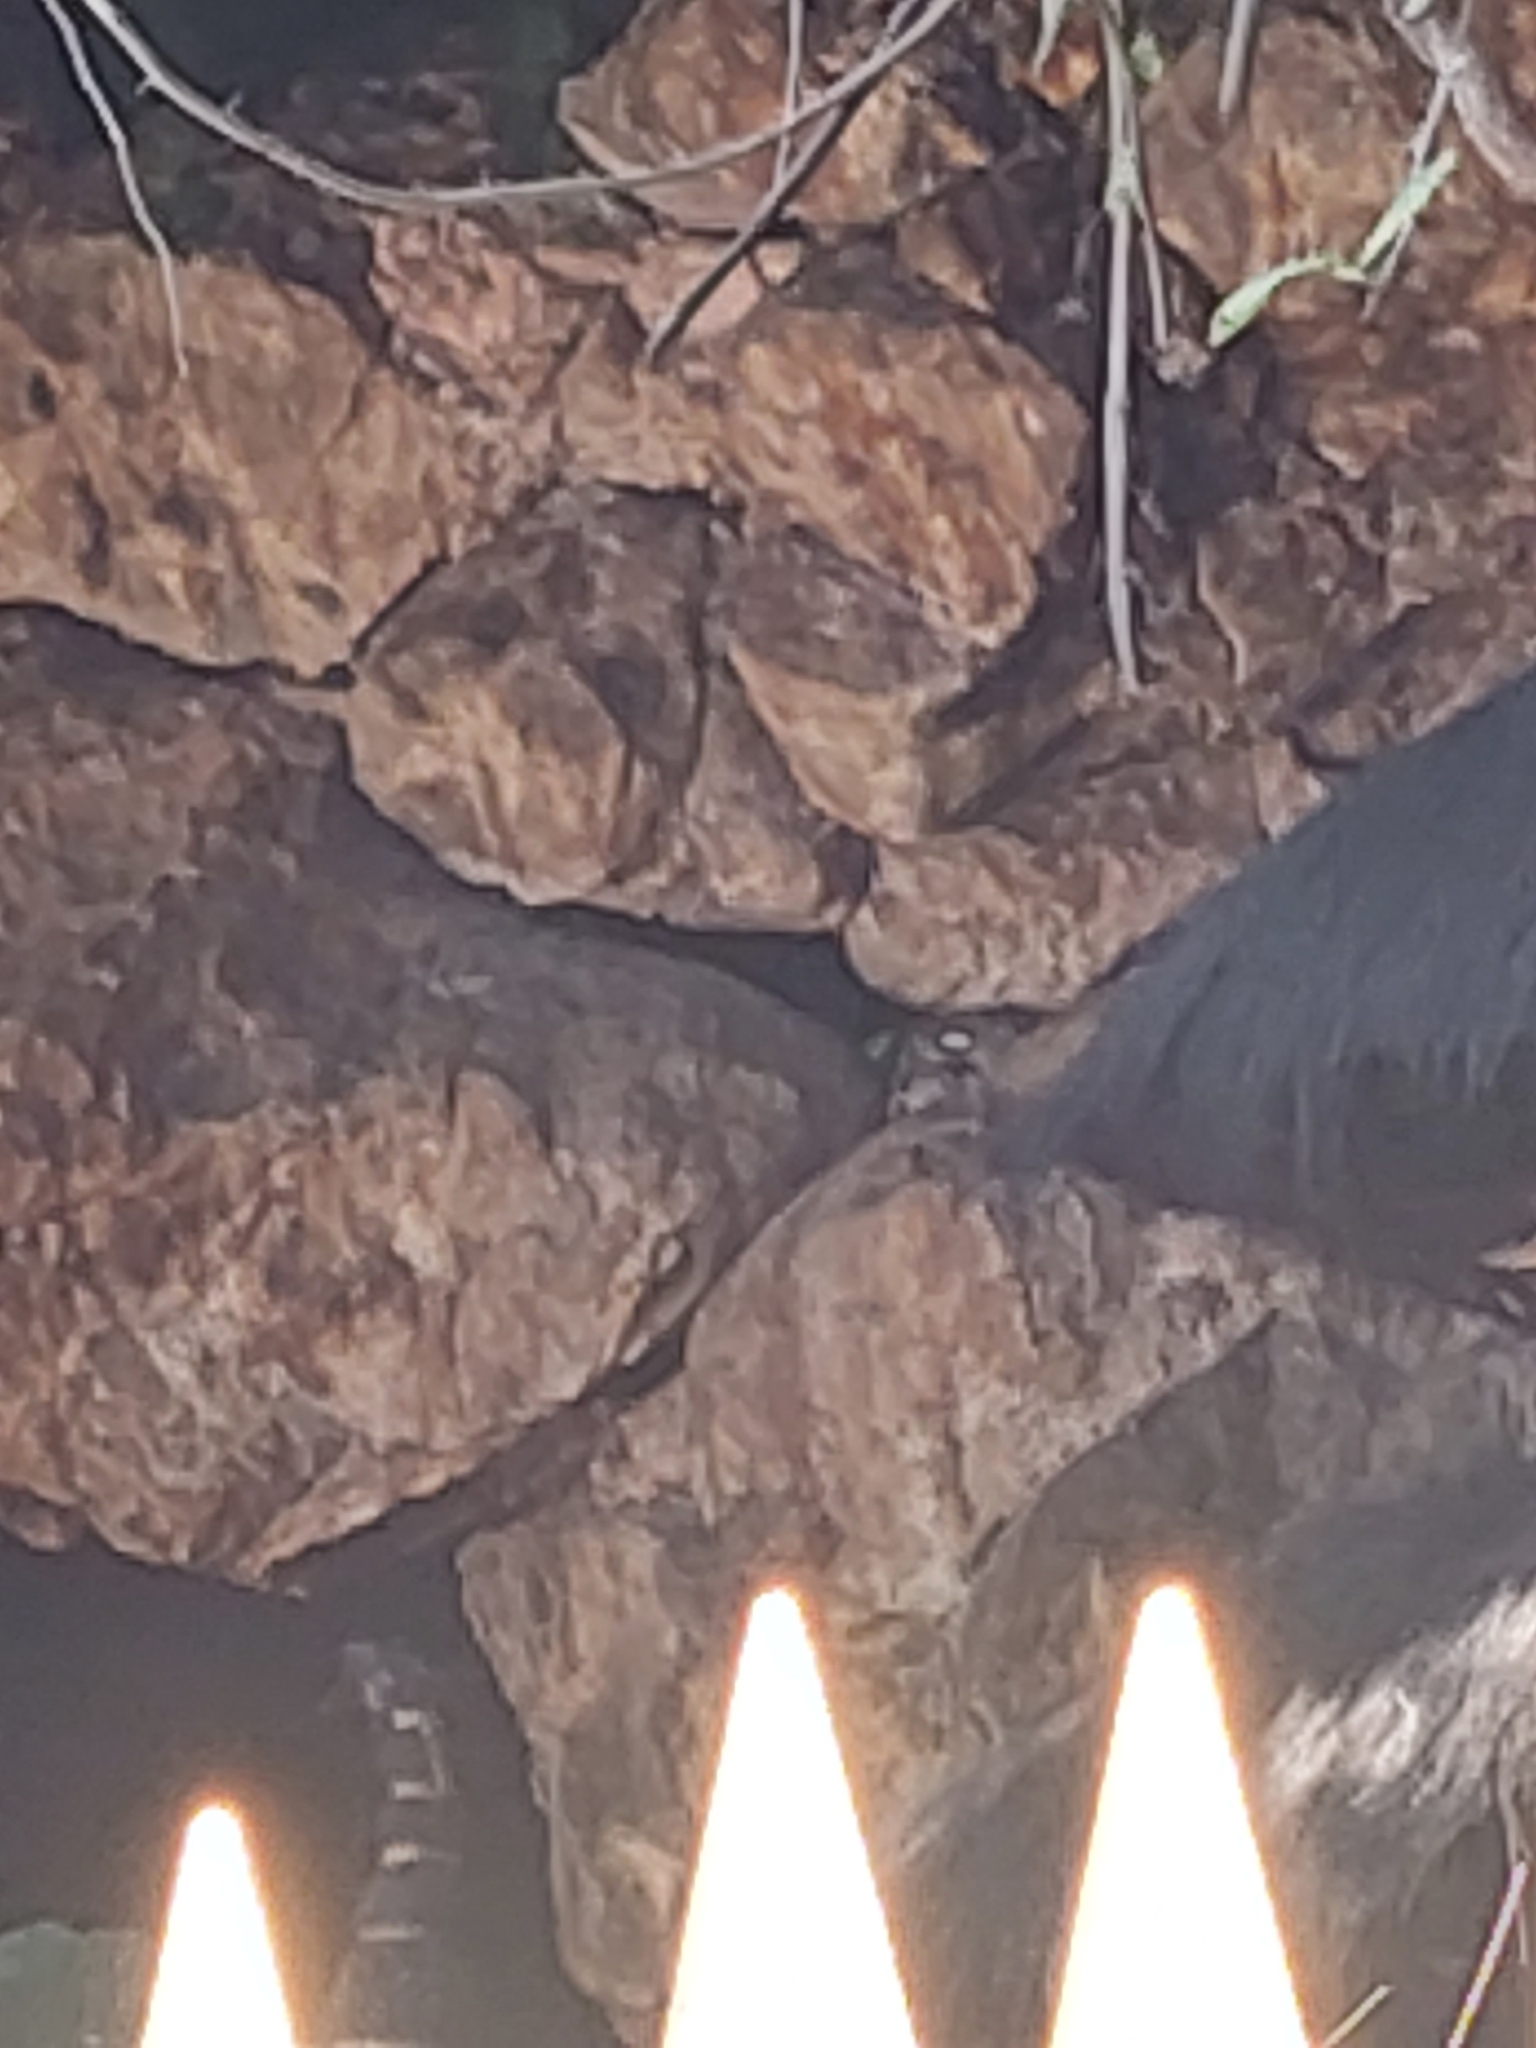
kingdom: Animalia
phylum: Chordata
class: Squamata
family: Pythonidae
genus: Malayopython
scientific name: Malayopython reticulatus
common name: Reticulated python
